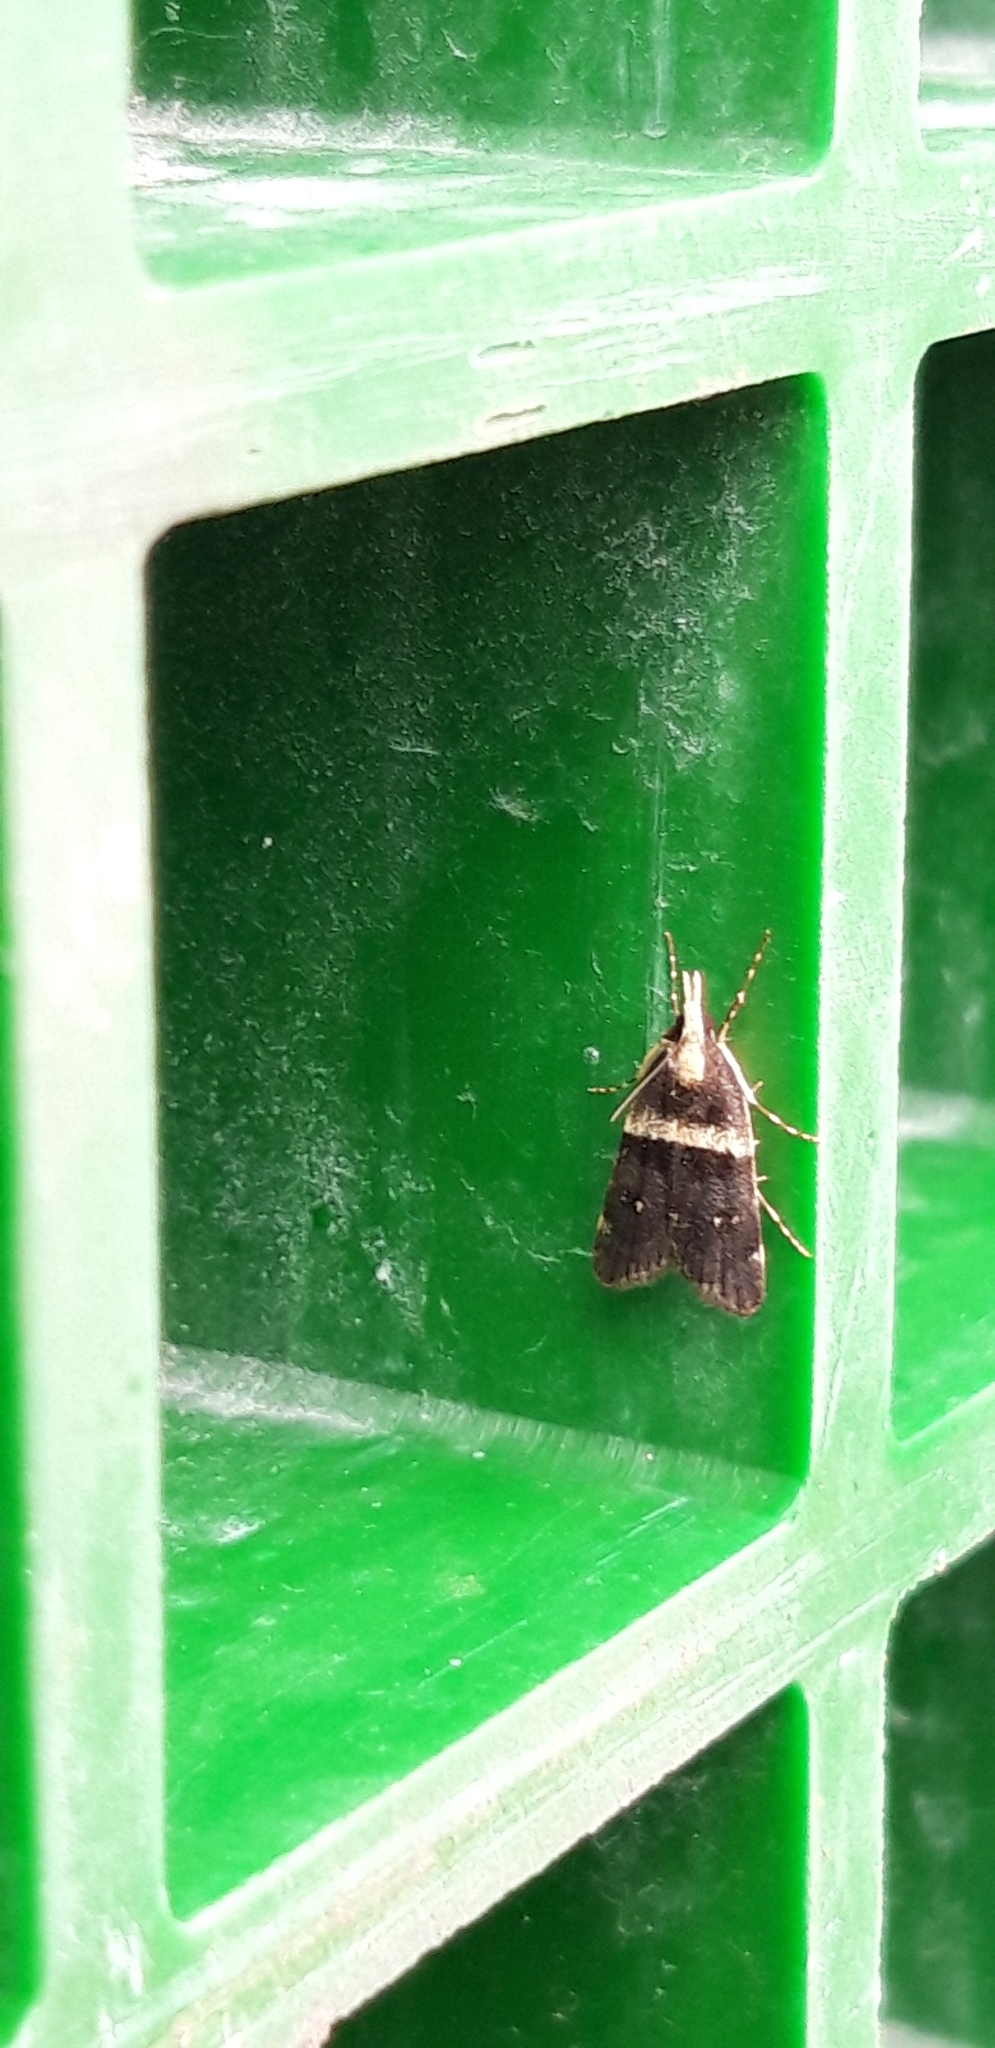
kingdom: Animalia
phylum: Arthropoda
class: Insecta
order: Lepidoptera
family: Crambidae
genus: Scoparia
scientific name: Scoparia transversalis
